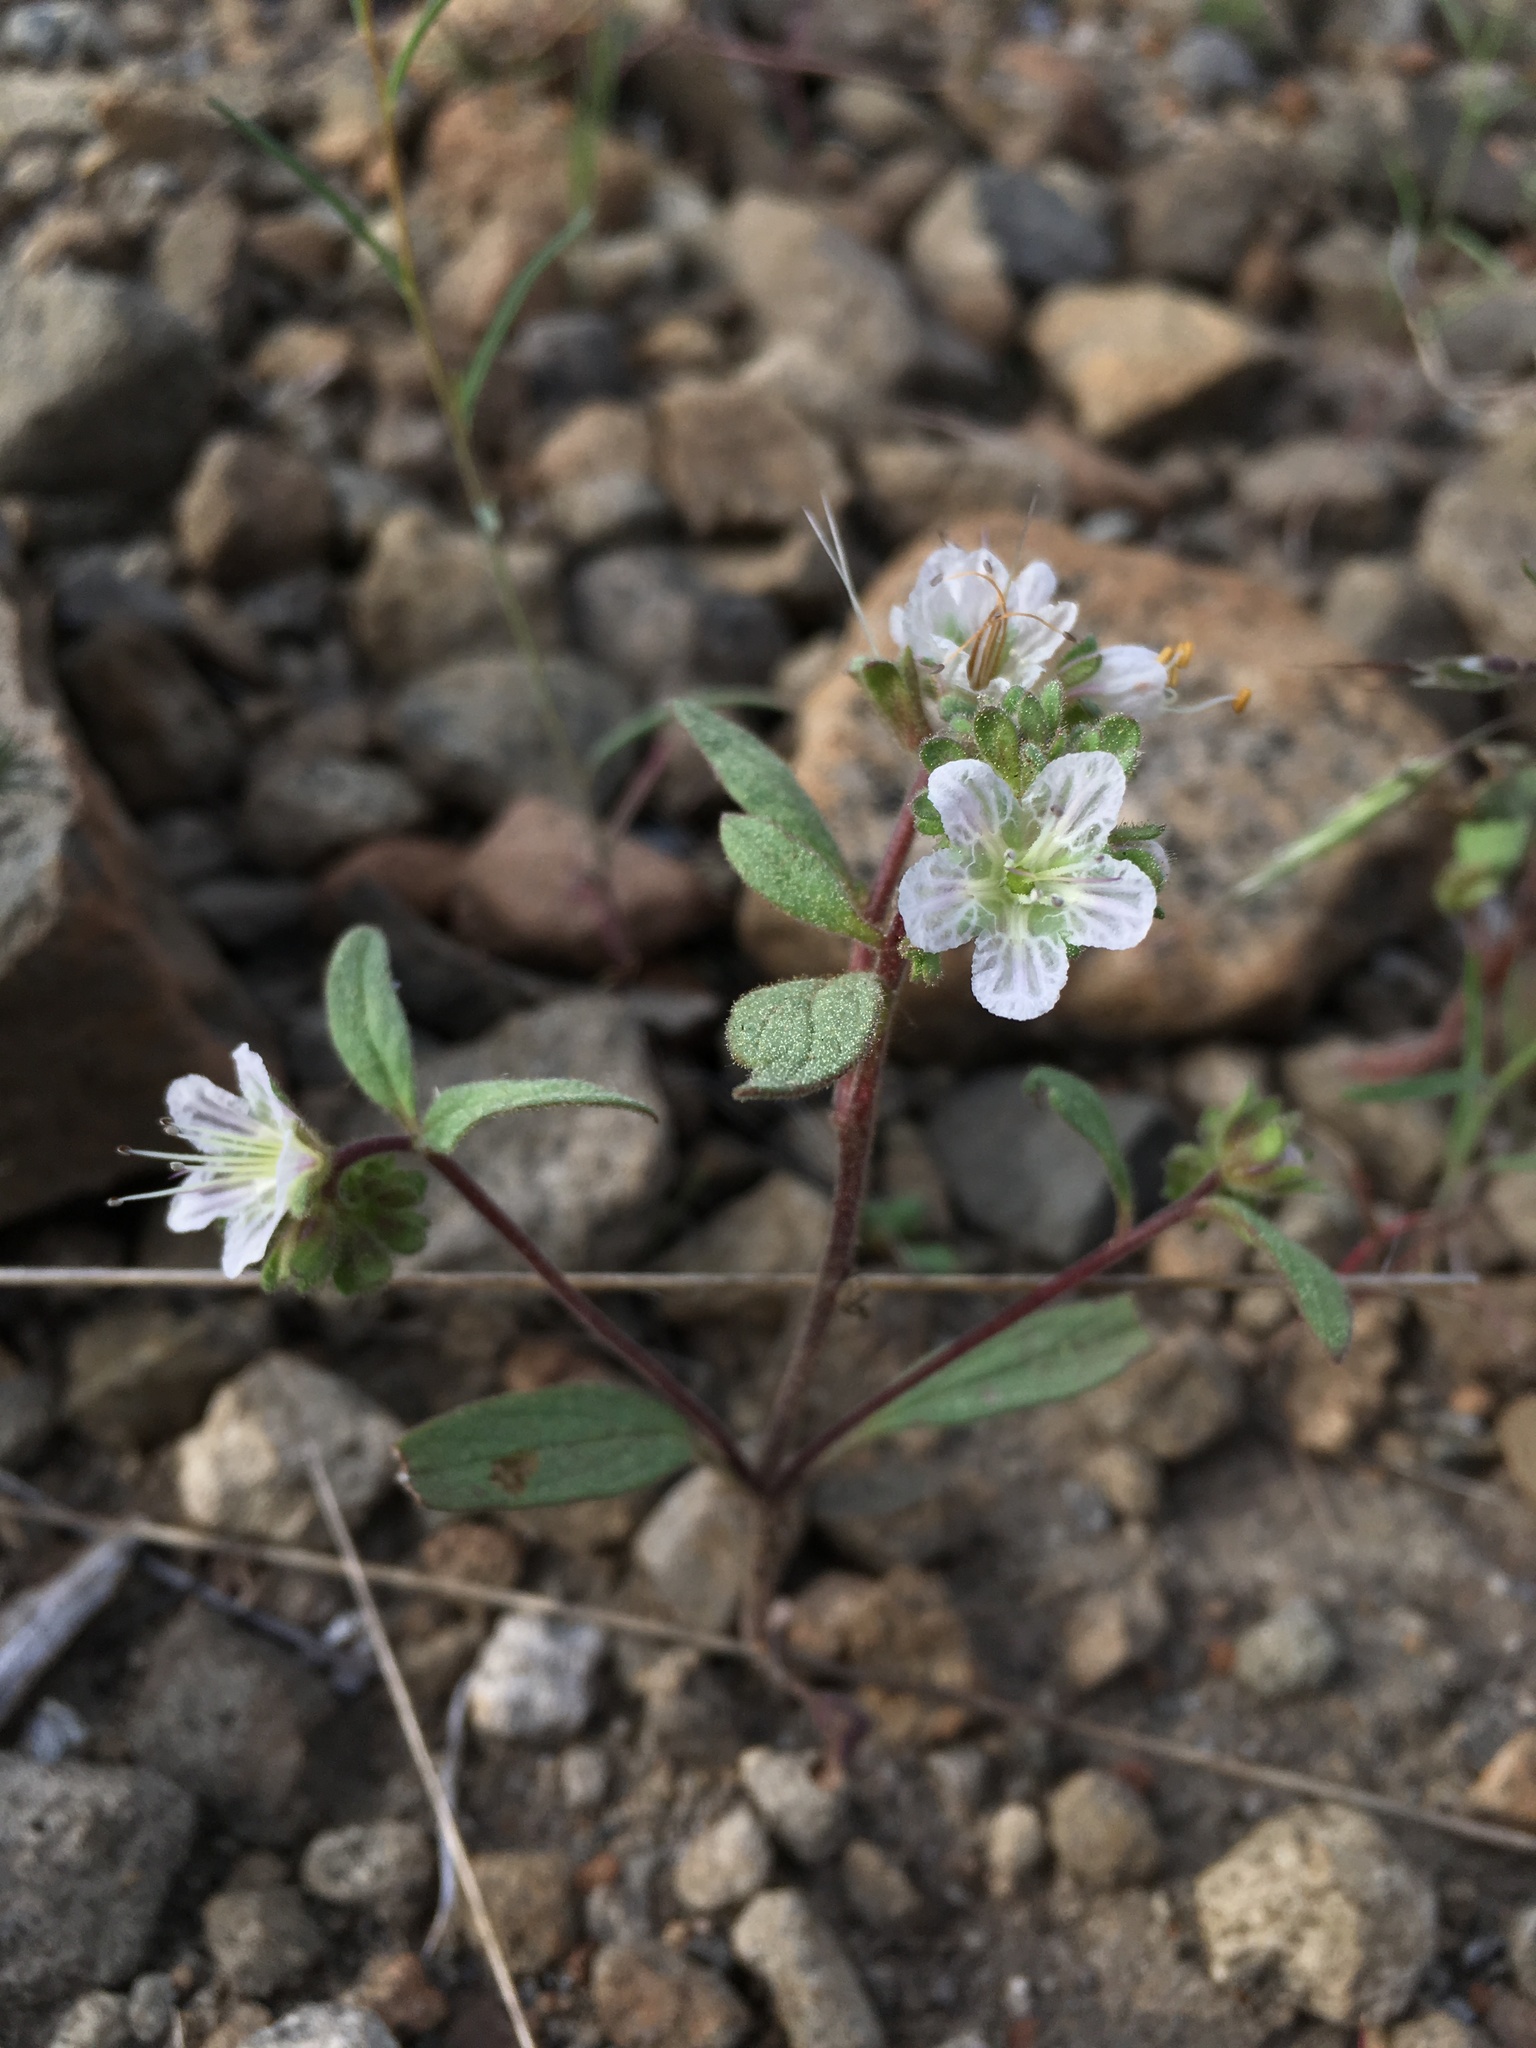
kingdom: Plantae
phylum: Tracheophyta
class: Magnoliopsida
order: Boraginales
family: Hydrophyllaceae
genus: Phacelia
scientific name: Phacelia purpusii
